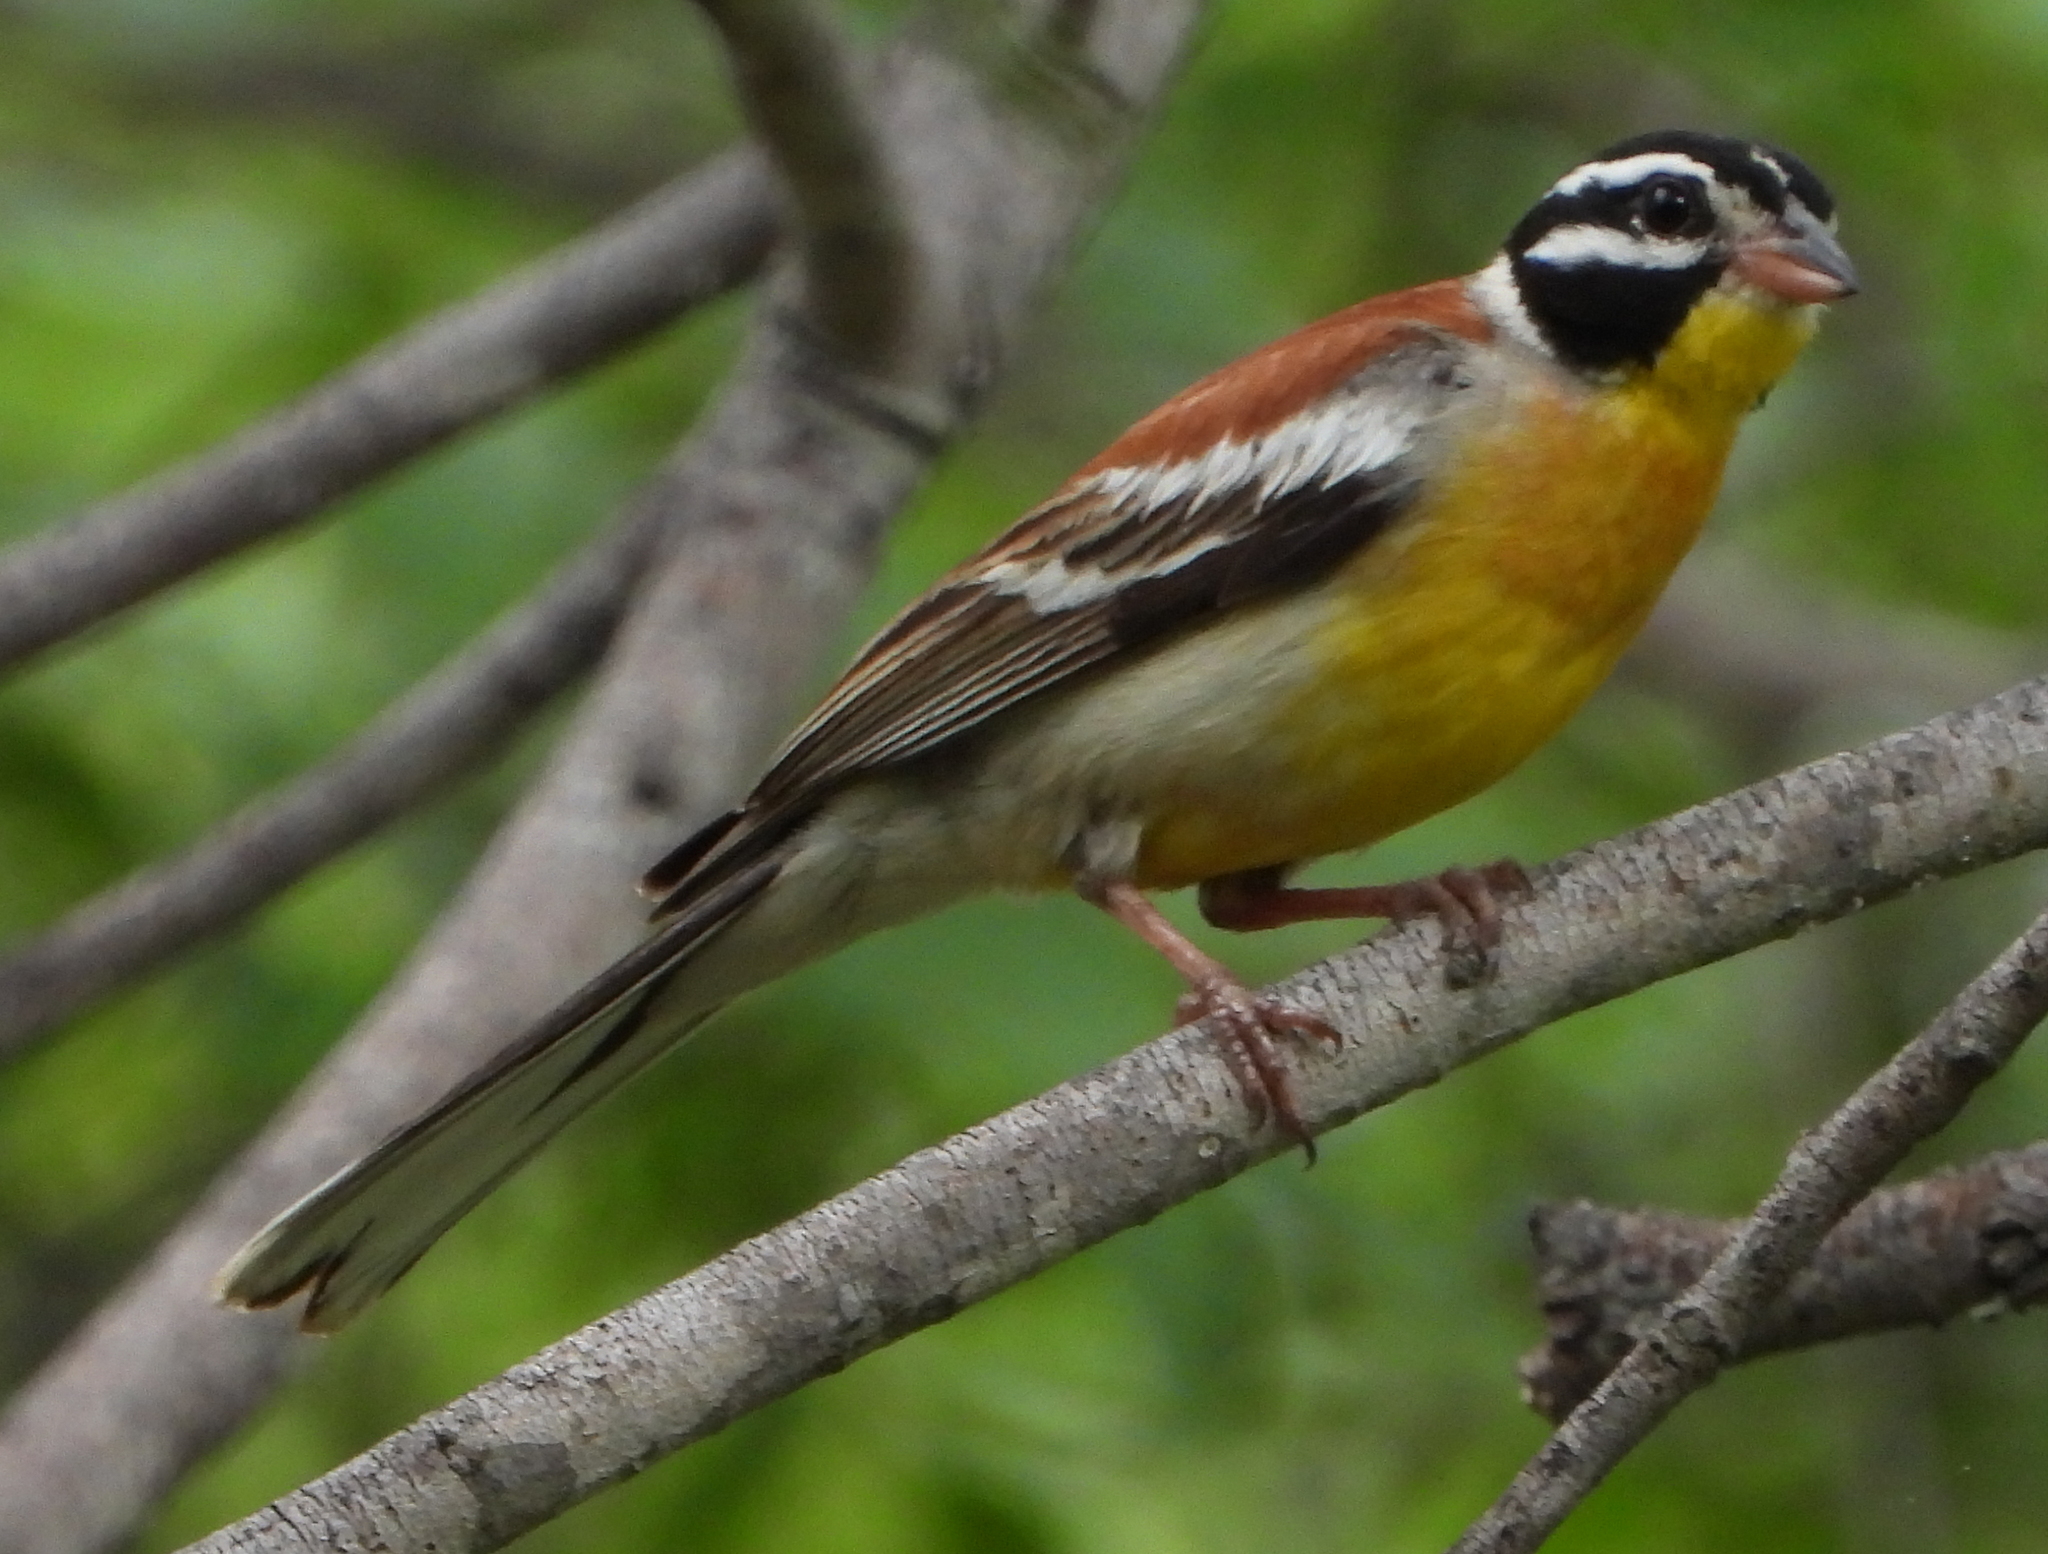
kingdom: Animalia
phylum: Chordata
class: Aves
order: Passeriformes
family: Emberizidae
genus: Emberiza
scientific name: Emberiza flaviventris
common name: Golden-breasted bunting
